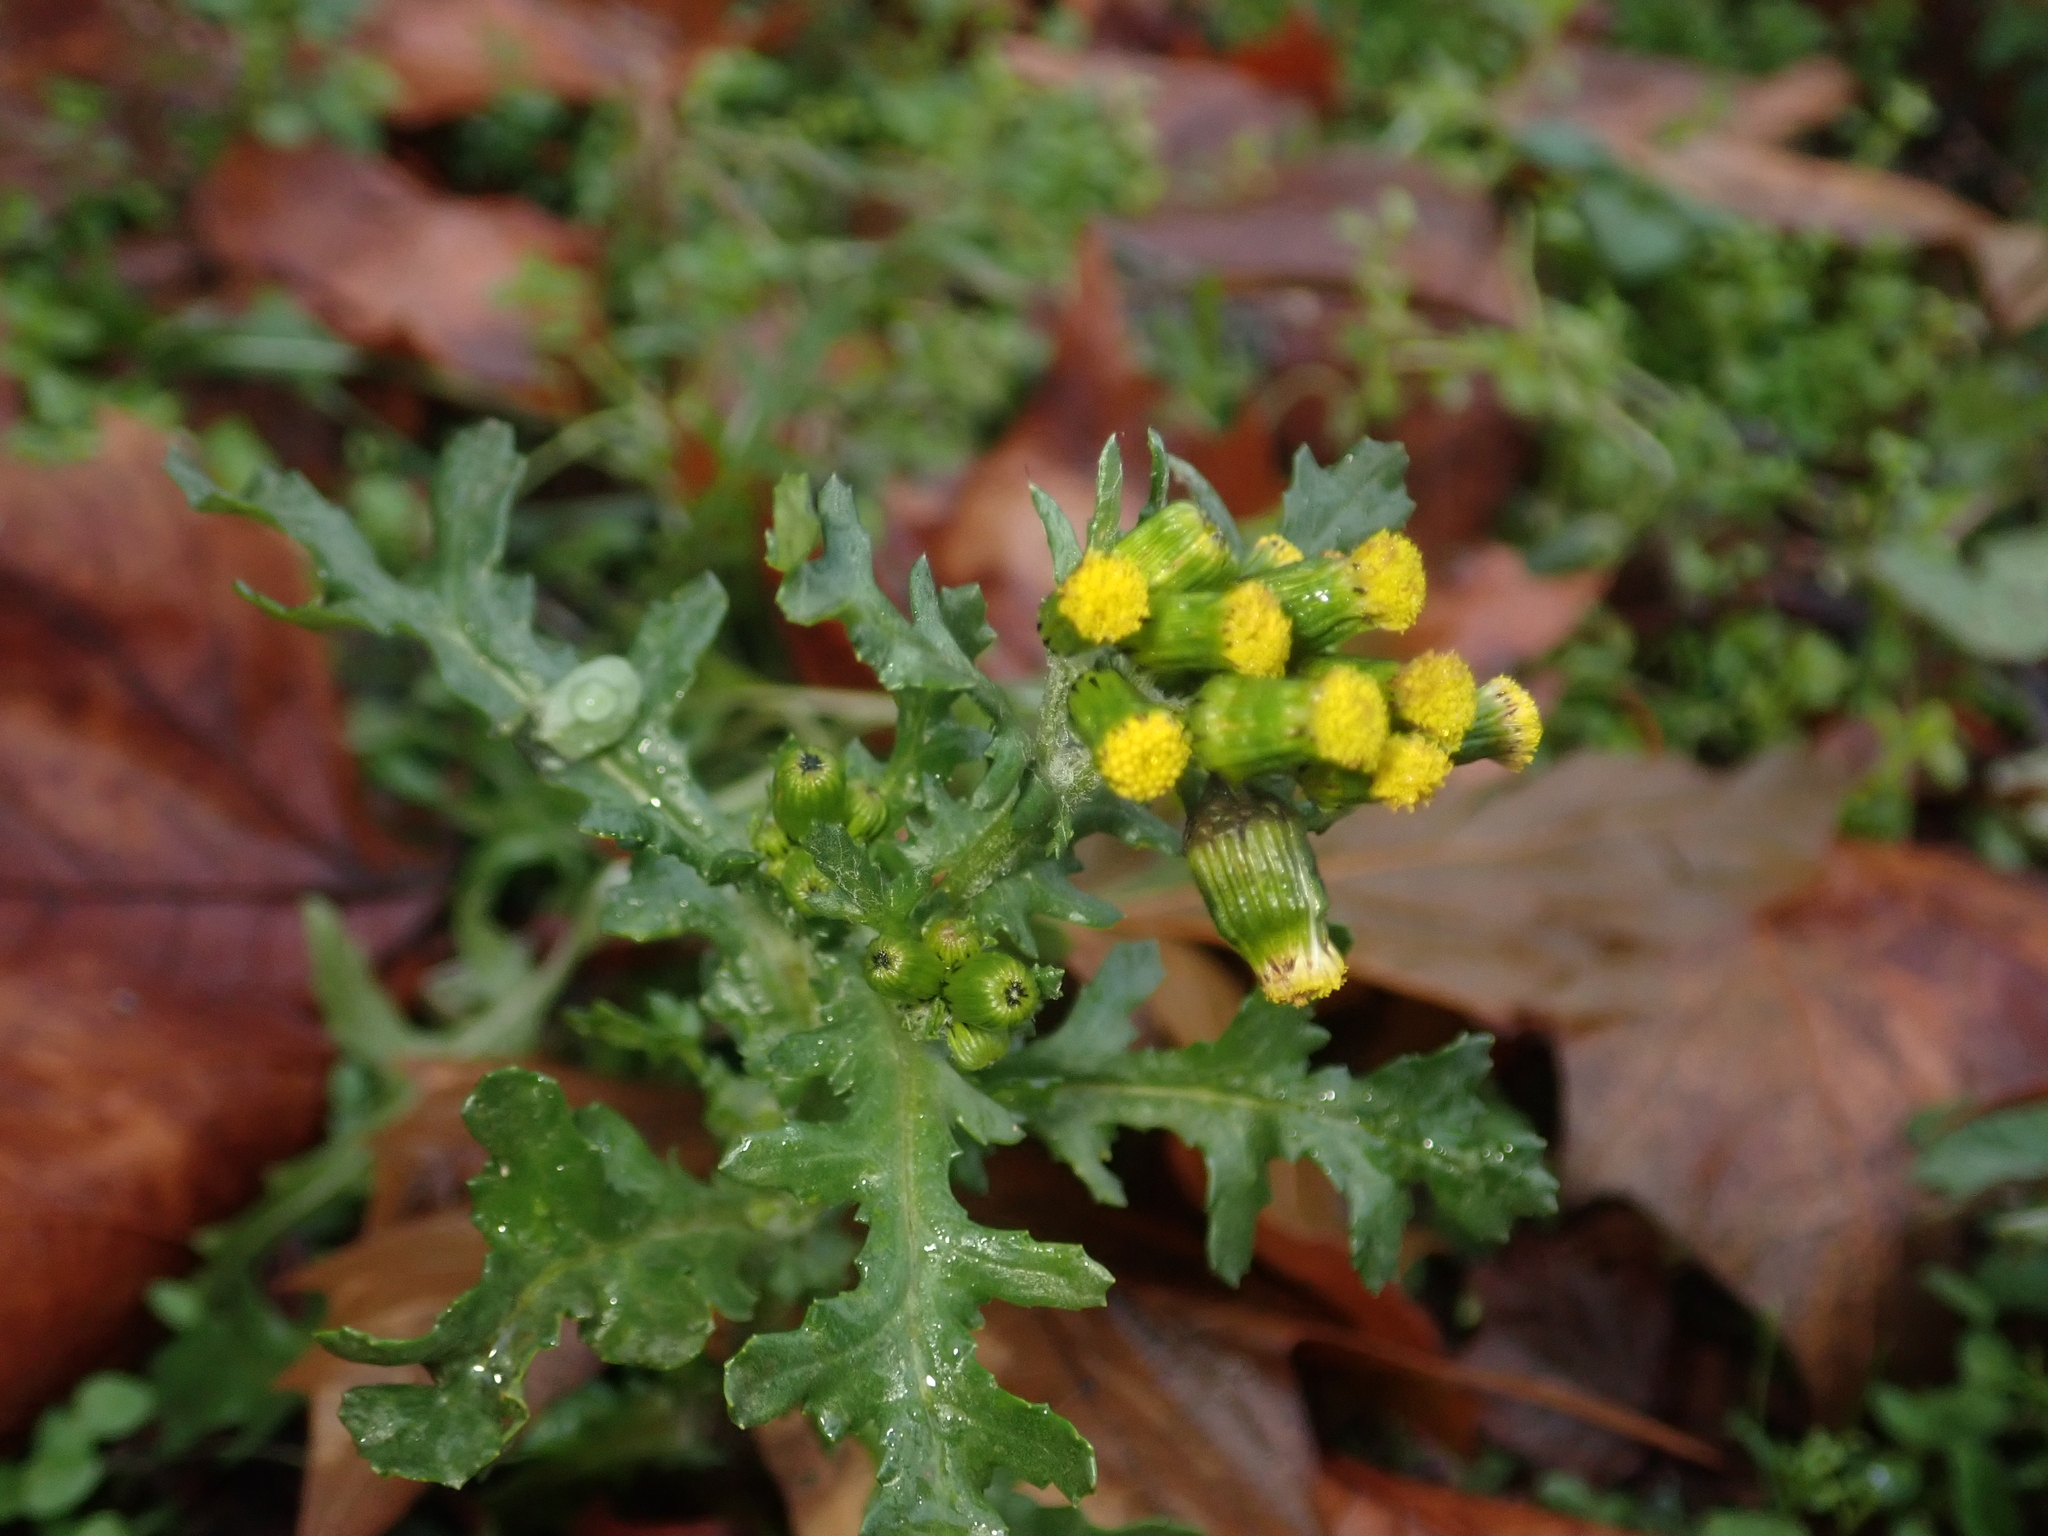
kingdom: Plantae
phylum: Tracheophyta
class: Magnoliopsida
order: Asterales
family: Asteraceae
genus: Senecio
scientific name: Senecio vulgaris
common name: Old-man-in-the-spring
